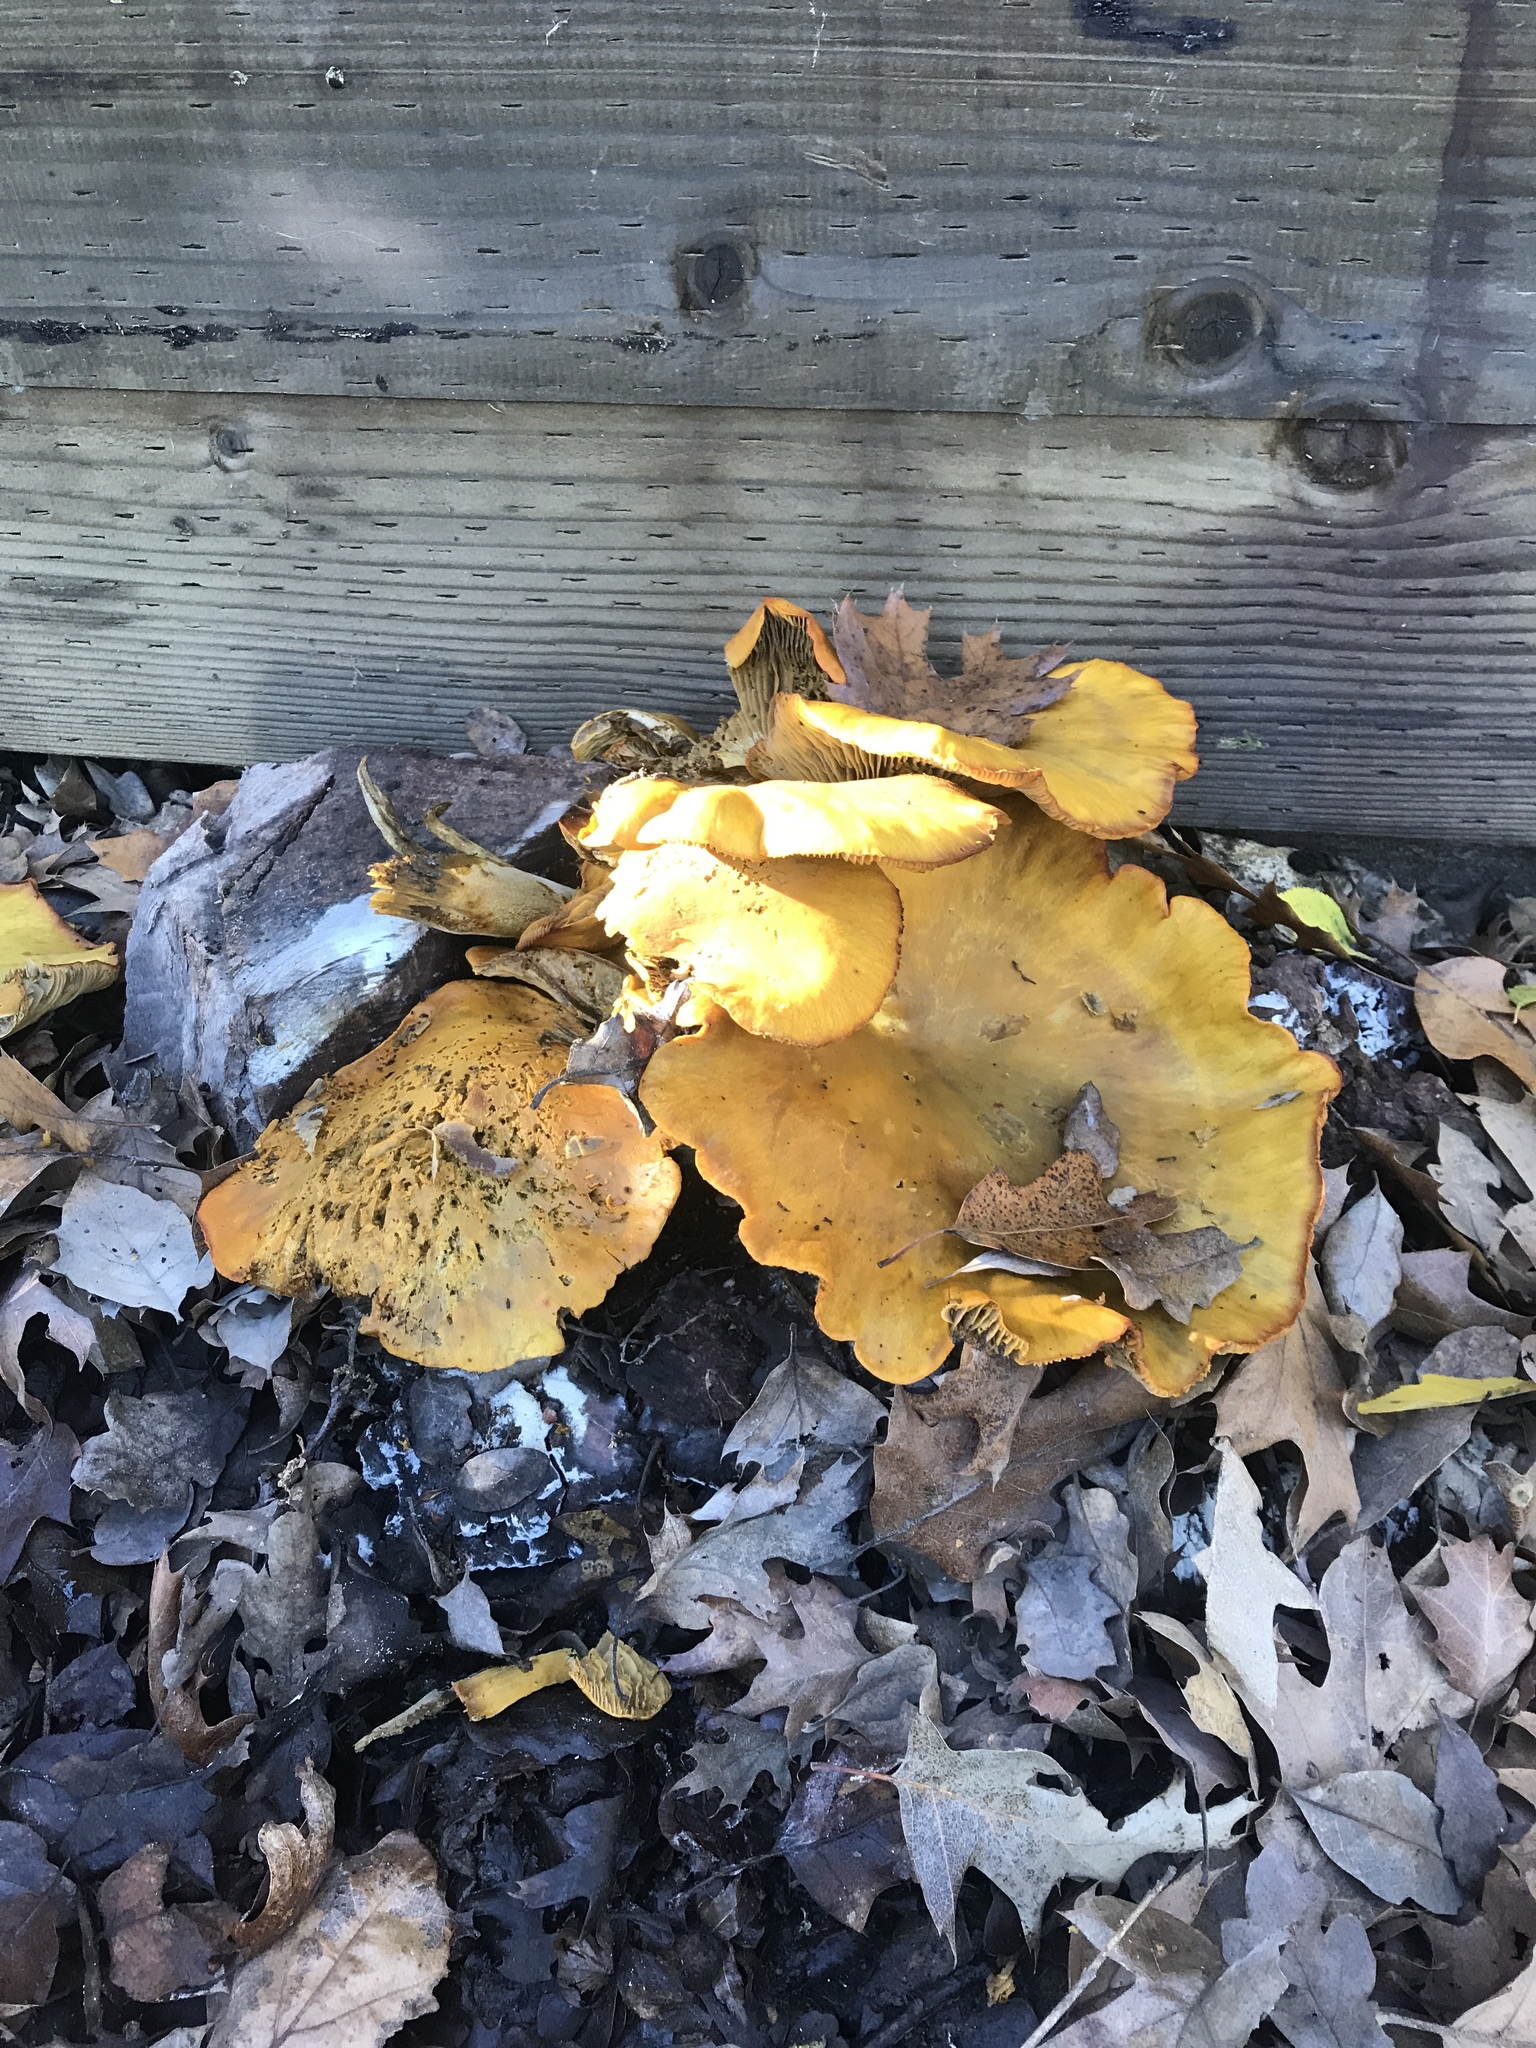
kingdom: Fungi
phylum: Basidiomycota
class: Agaricomycetes
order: Agaricales
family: Omphalotaceae
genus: Omphalotus
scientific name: Omphalotus olivascens
